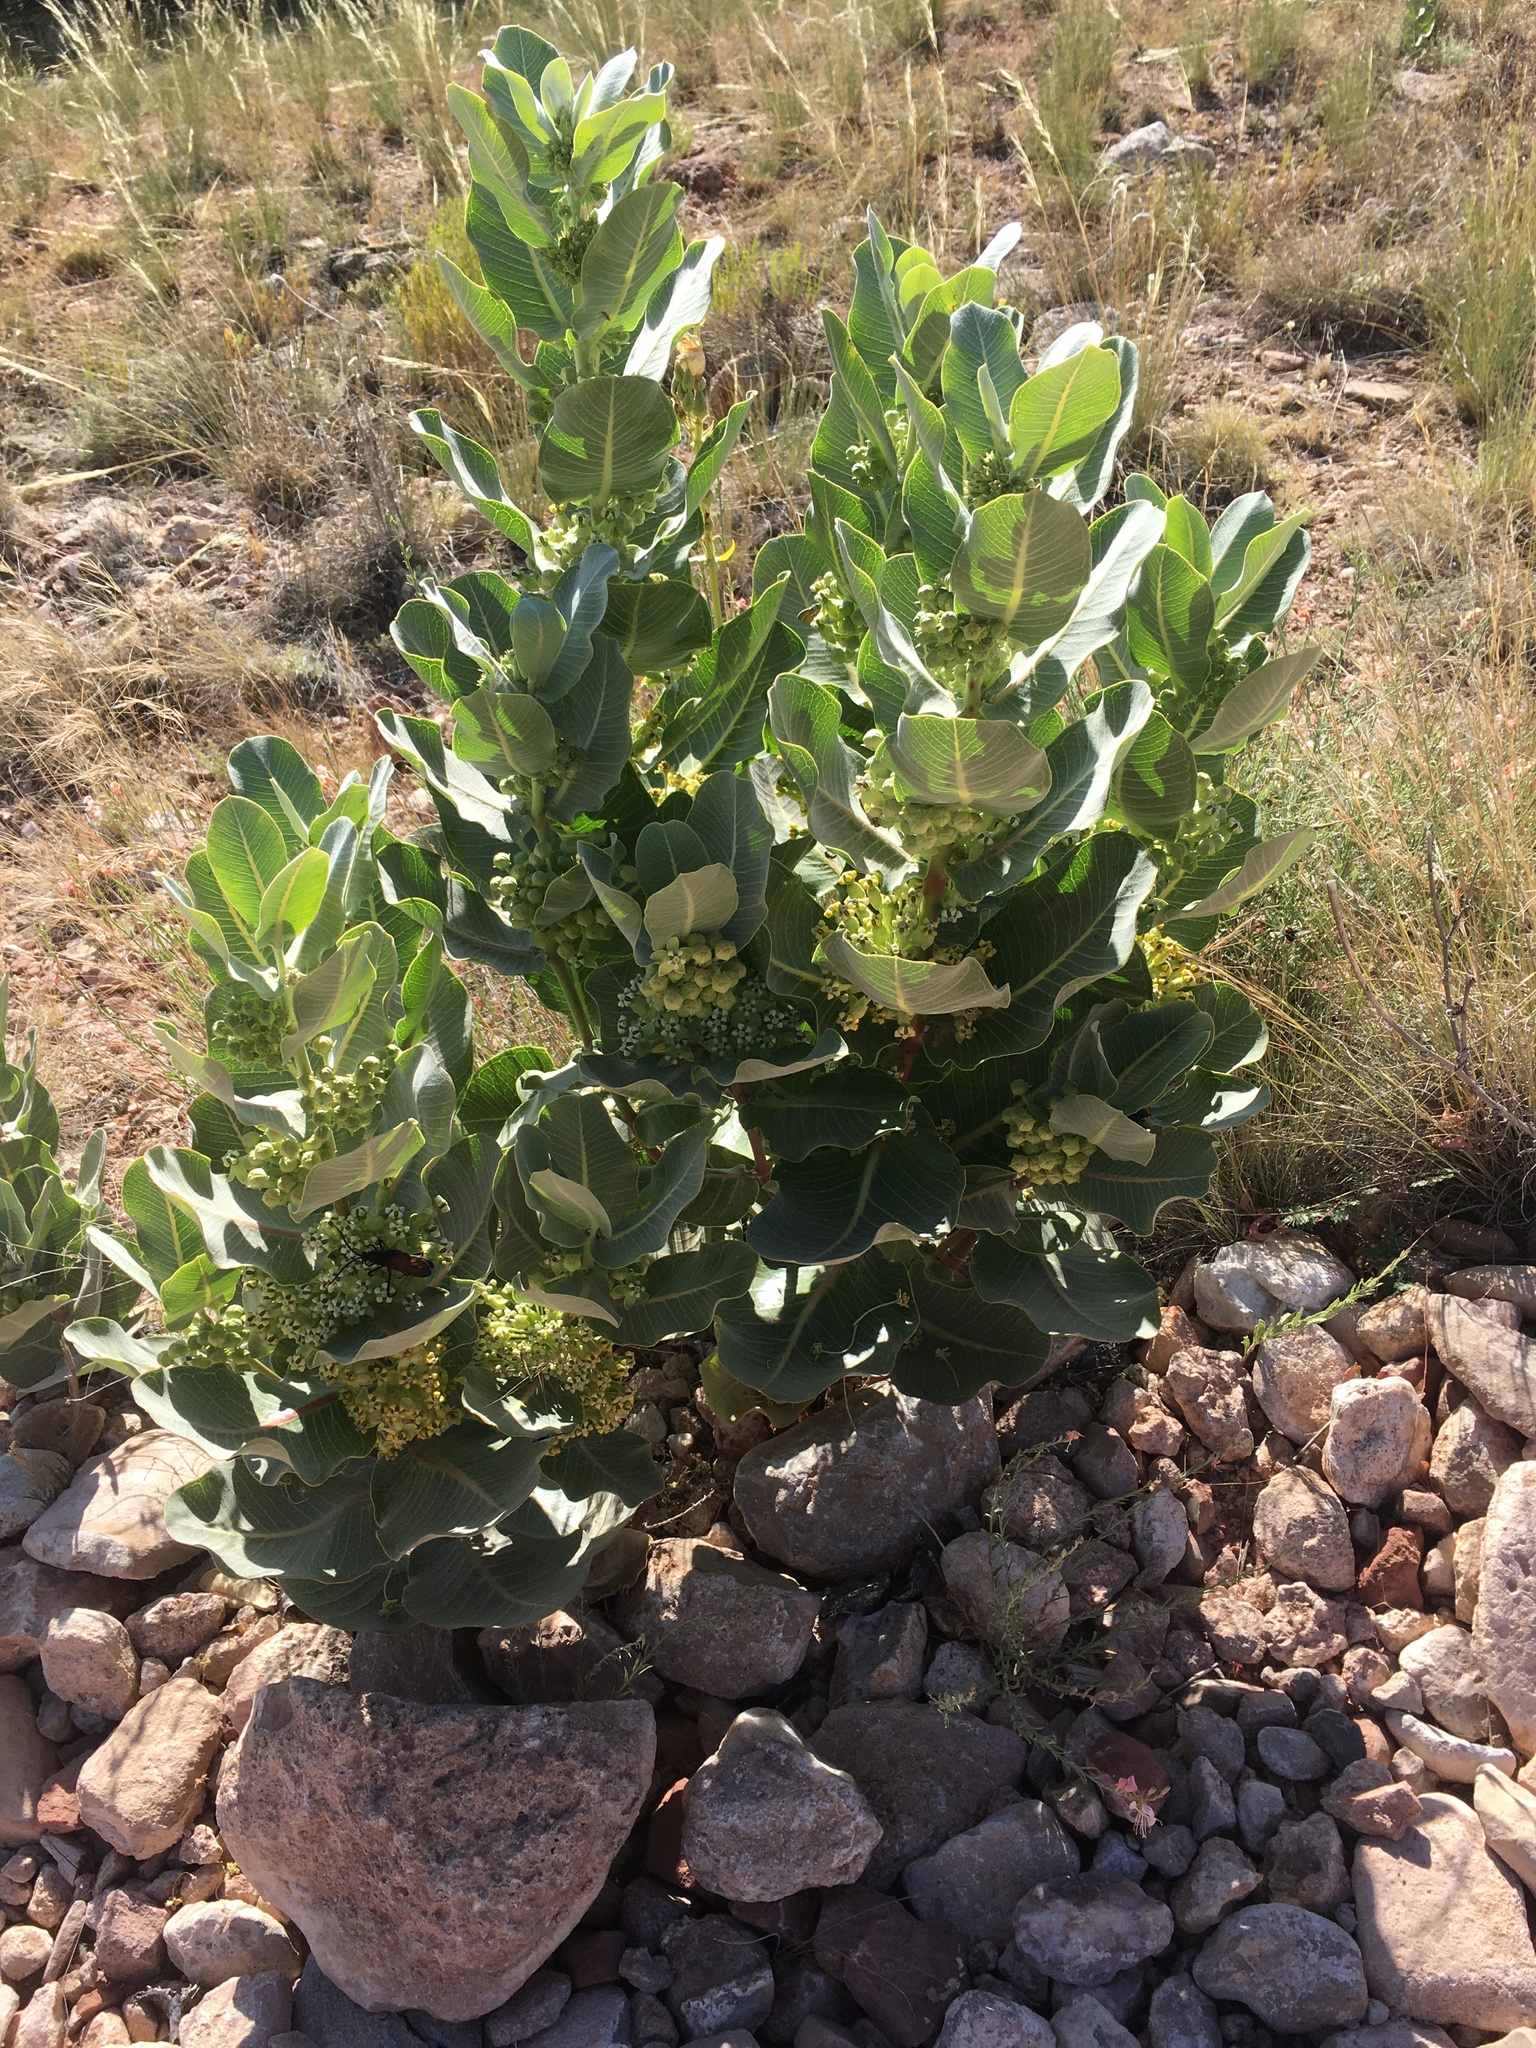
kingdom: Plantae
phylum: Tracheophyta
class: Magnoliopsida
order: Gentianales
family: Apocynaceae
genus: Asclepias
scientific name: Asclepias latifolia
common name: Broadleaf milkweed
